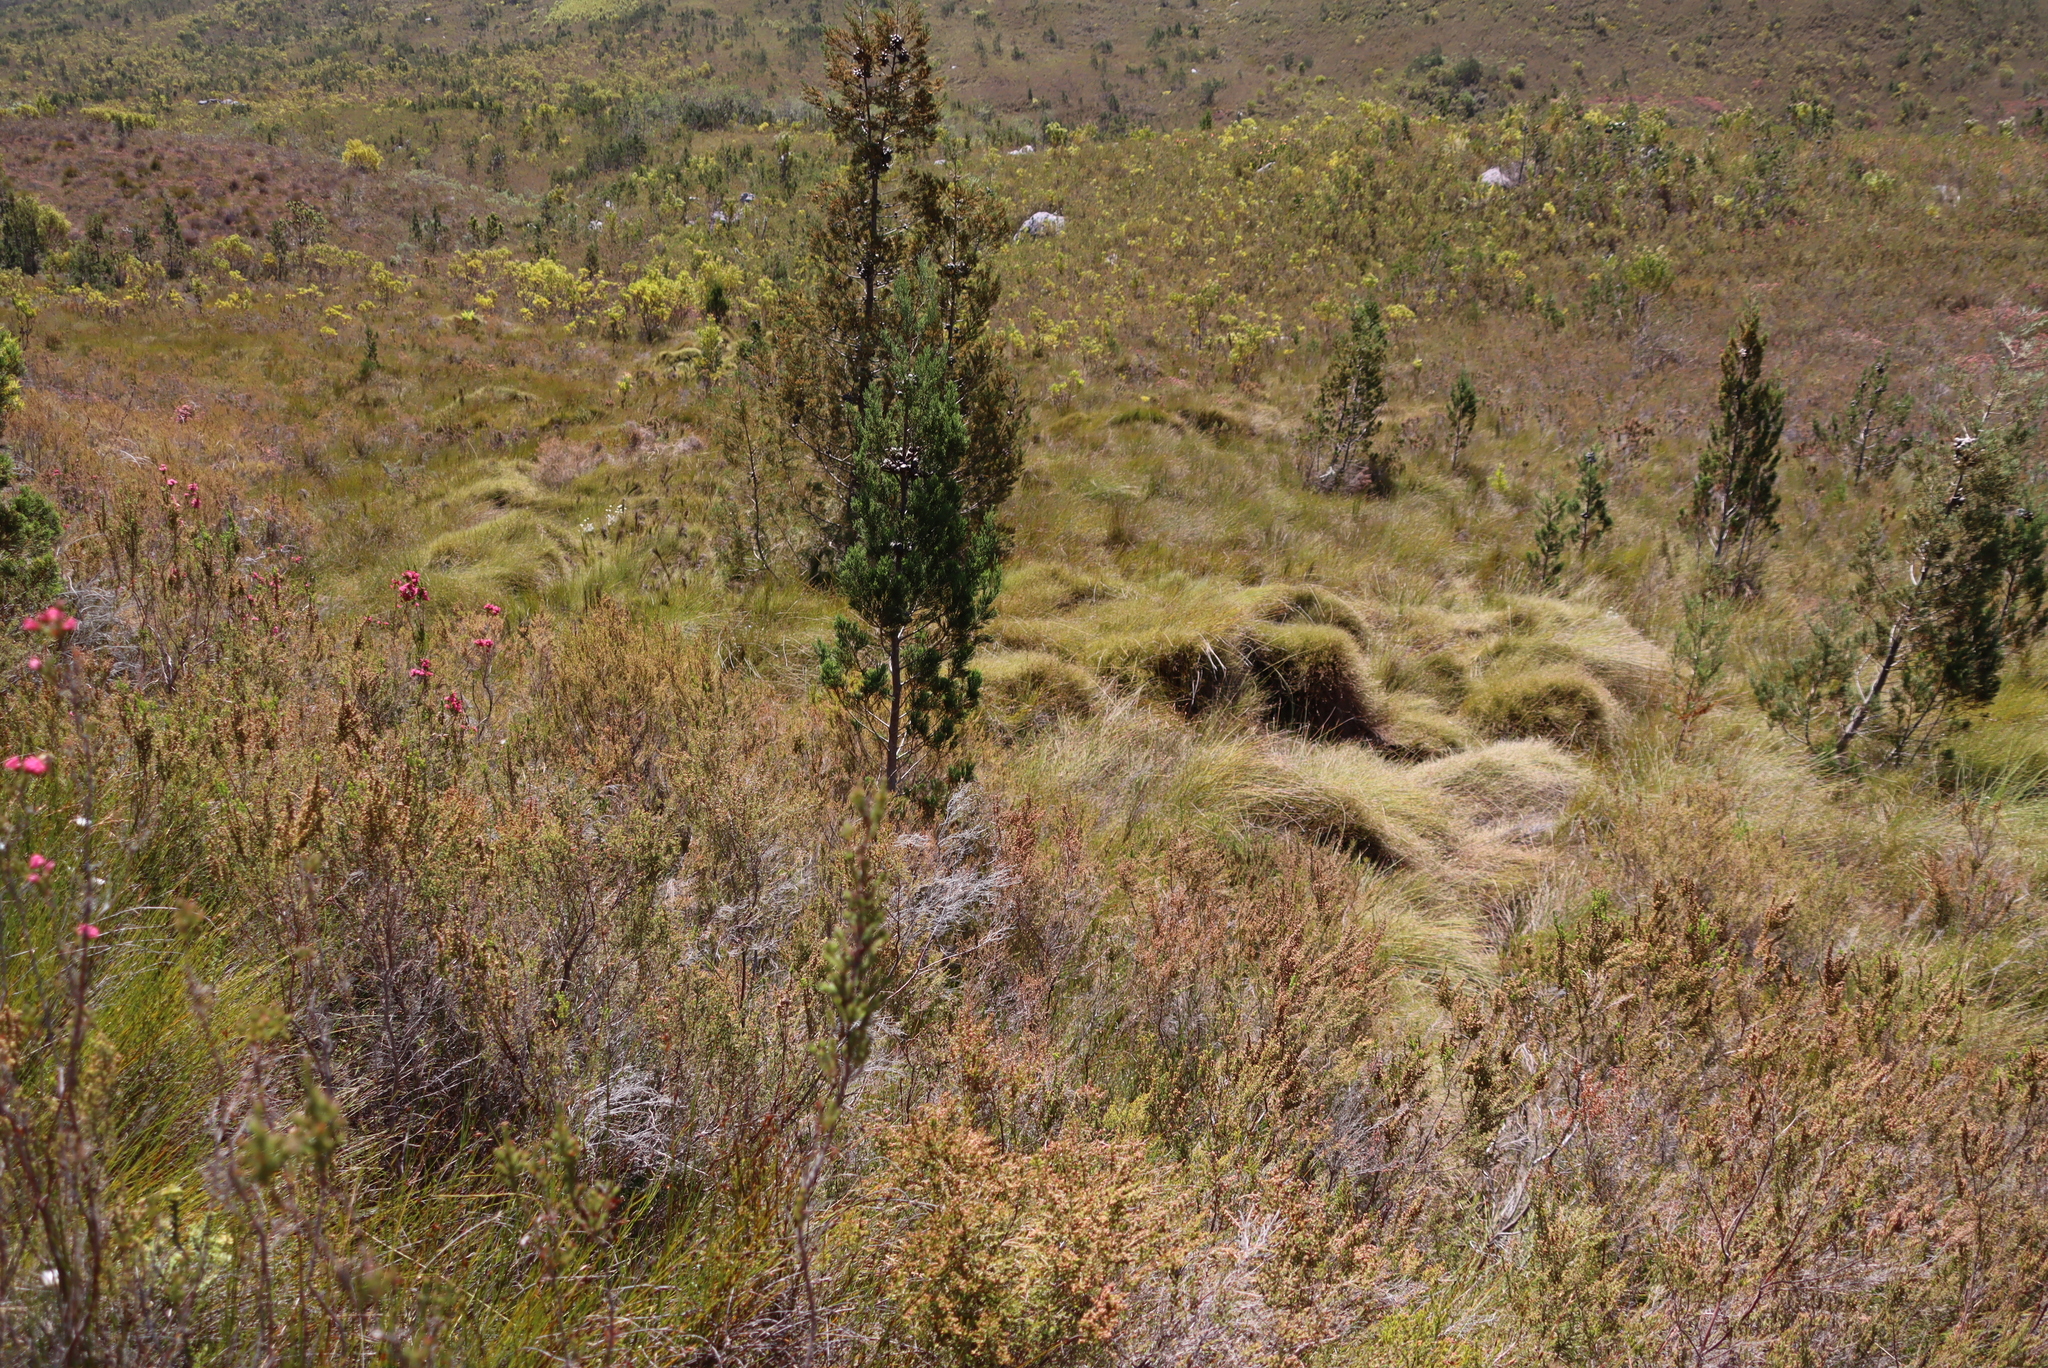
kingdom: Plantae
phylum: Tracheophyta
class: Pinopsida
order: Pinales
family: Cupressaceae
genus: Widdringtonia
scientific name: Widdringtonia nodiflora
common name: Cape cypress
